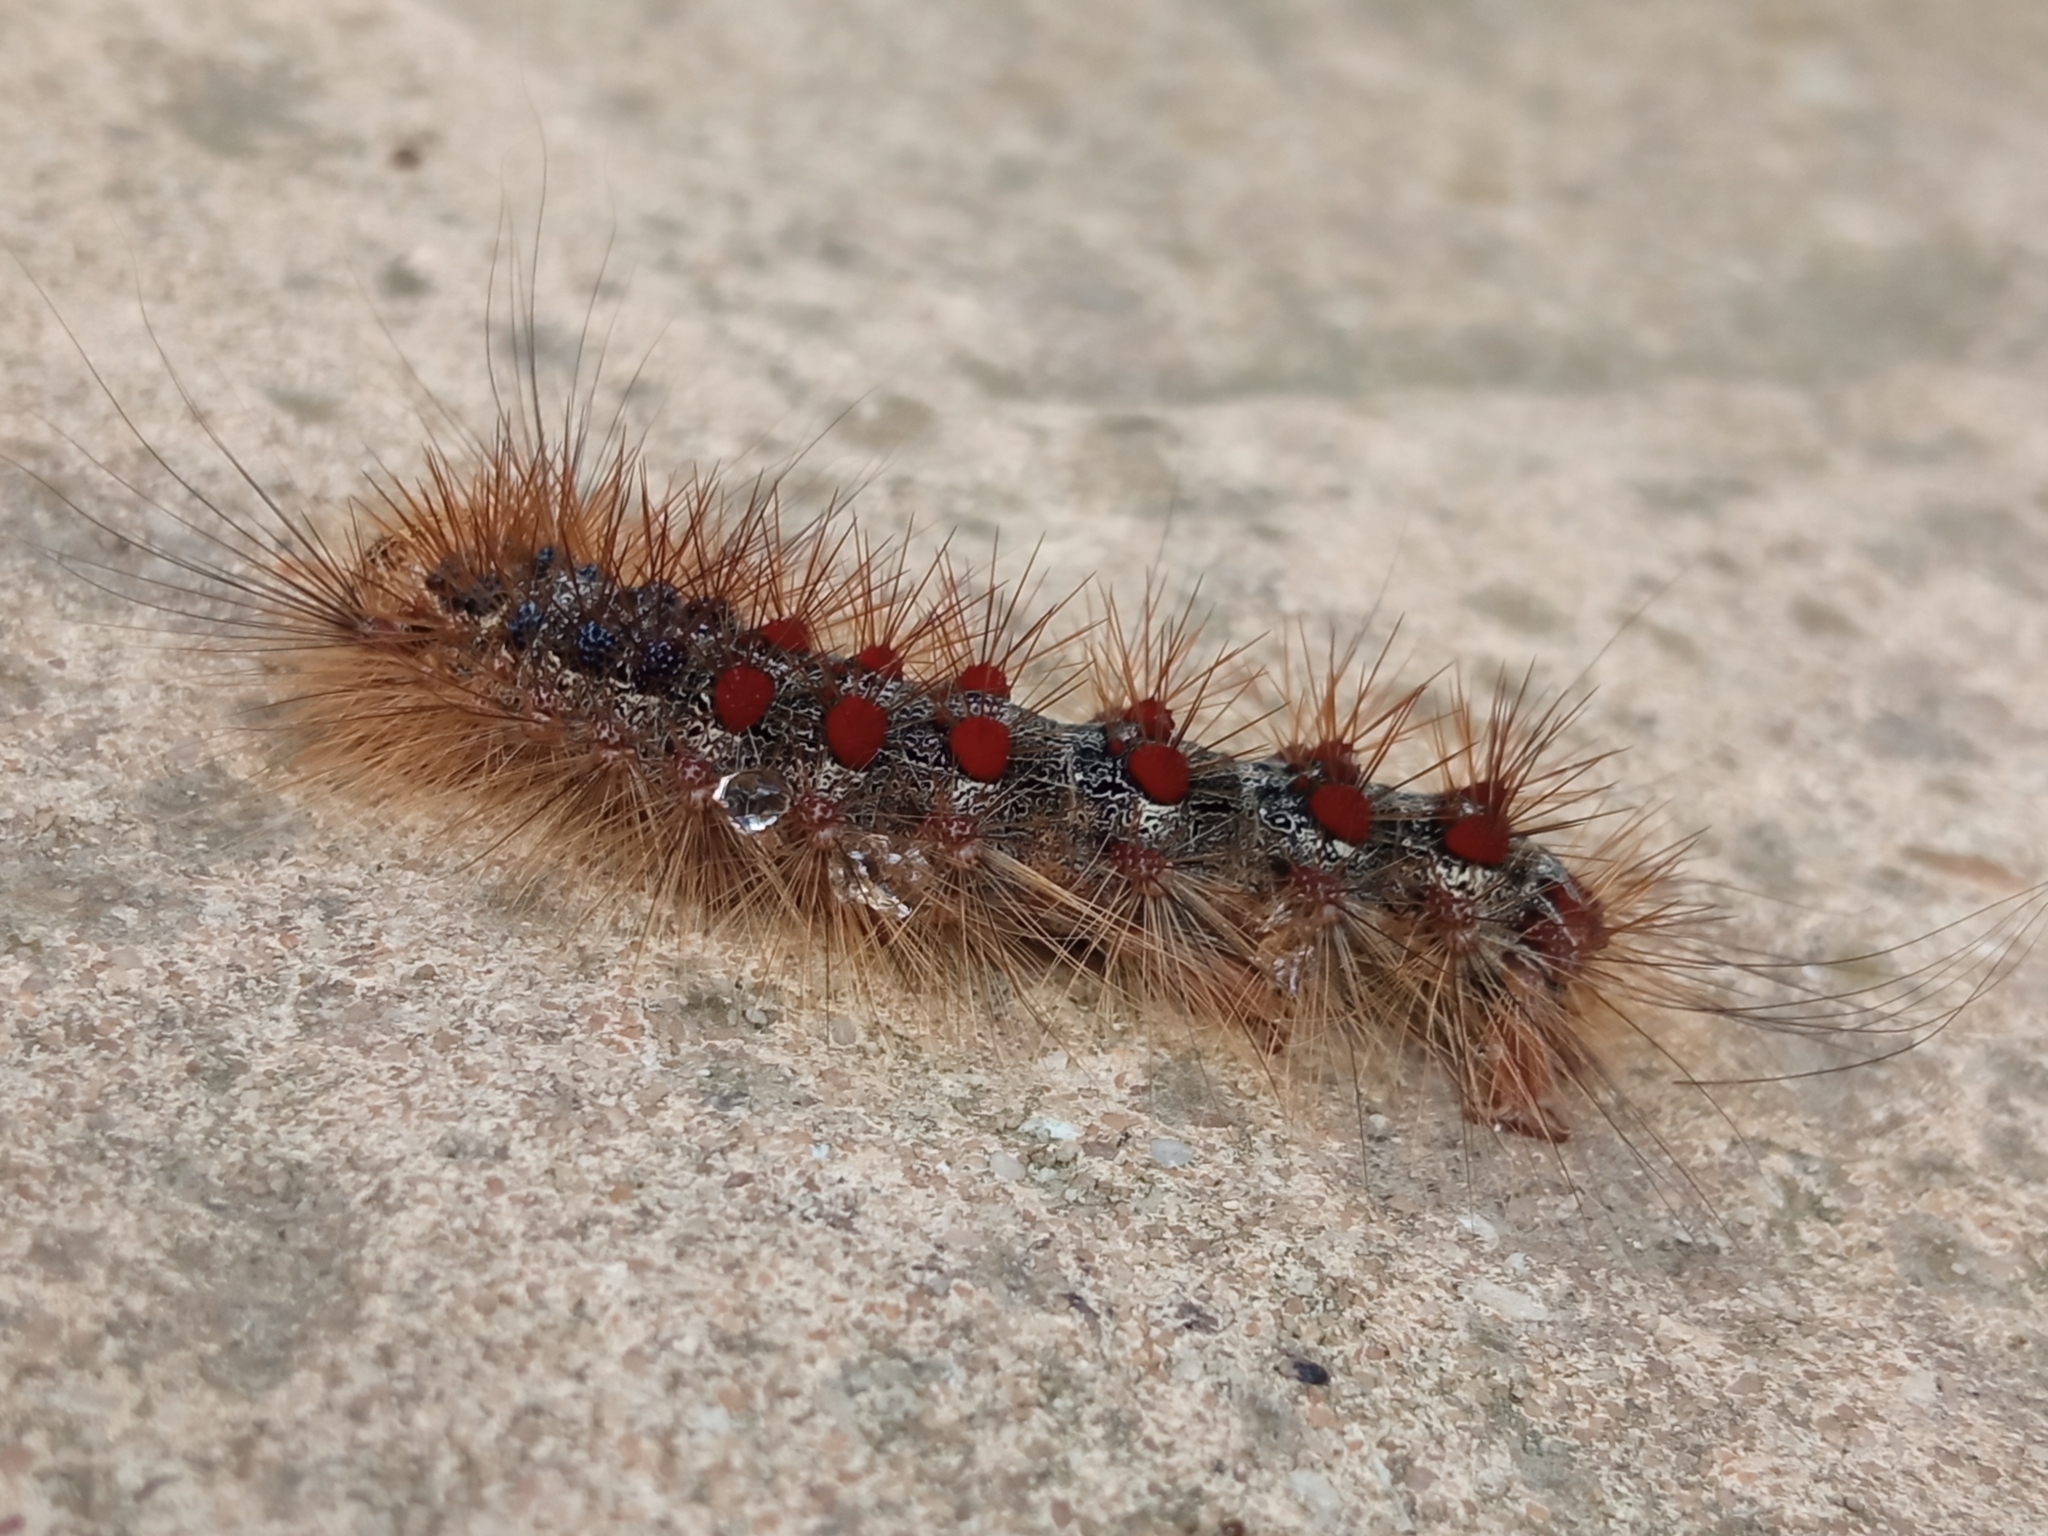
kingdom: Animalia
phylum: Arthropoda
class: Insecta
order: Lepidoptera
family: Erebidae
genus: Lymantria
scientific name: Lymantria dispar
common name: Gypsy moth
